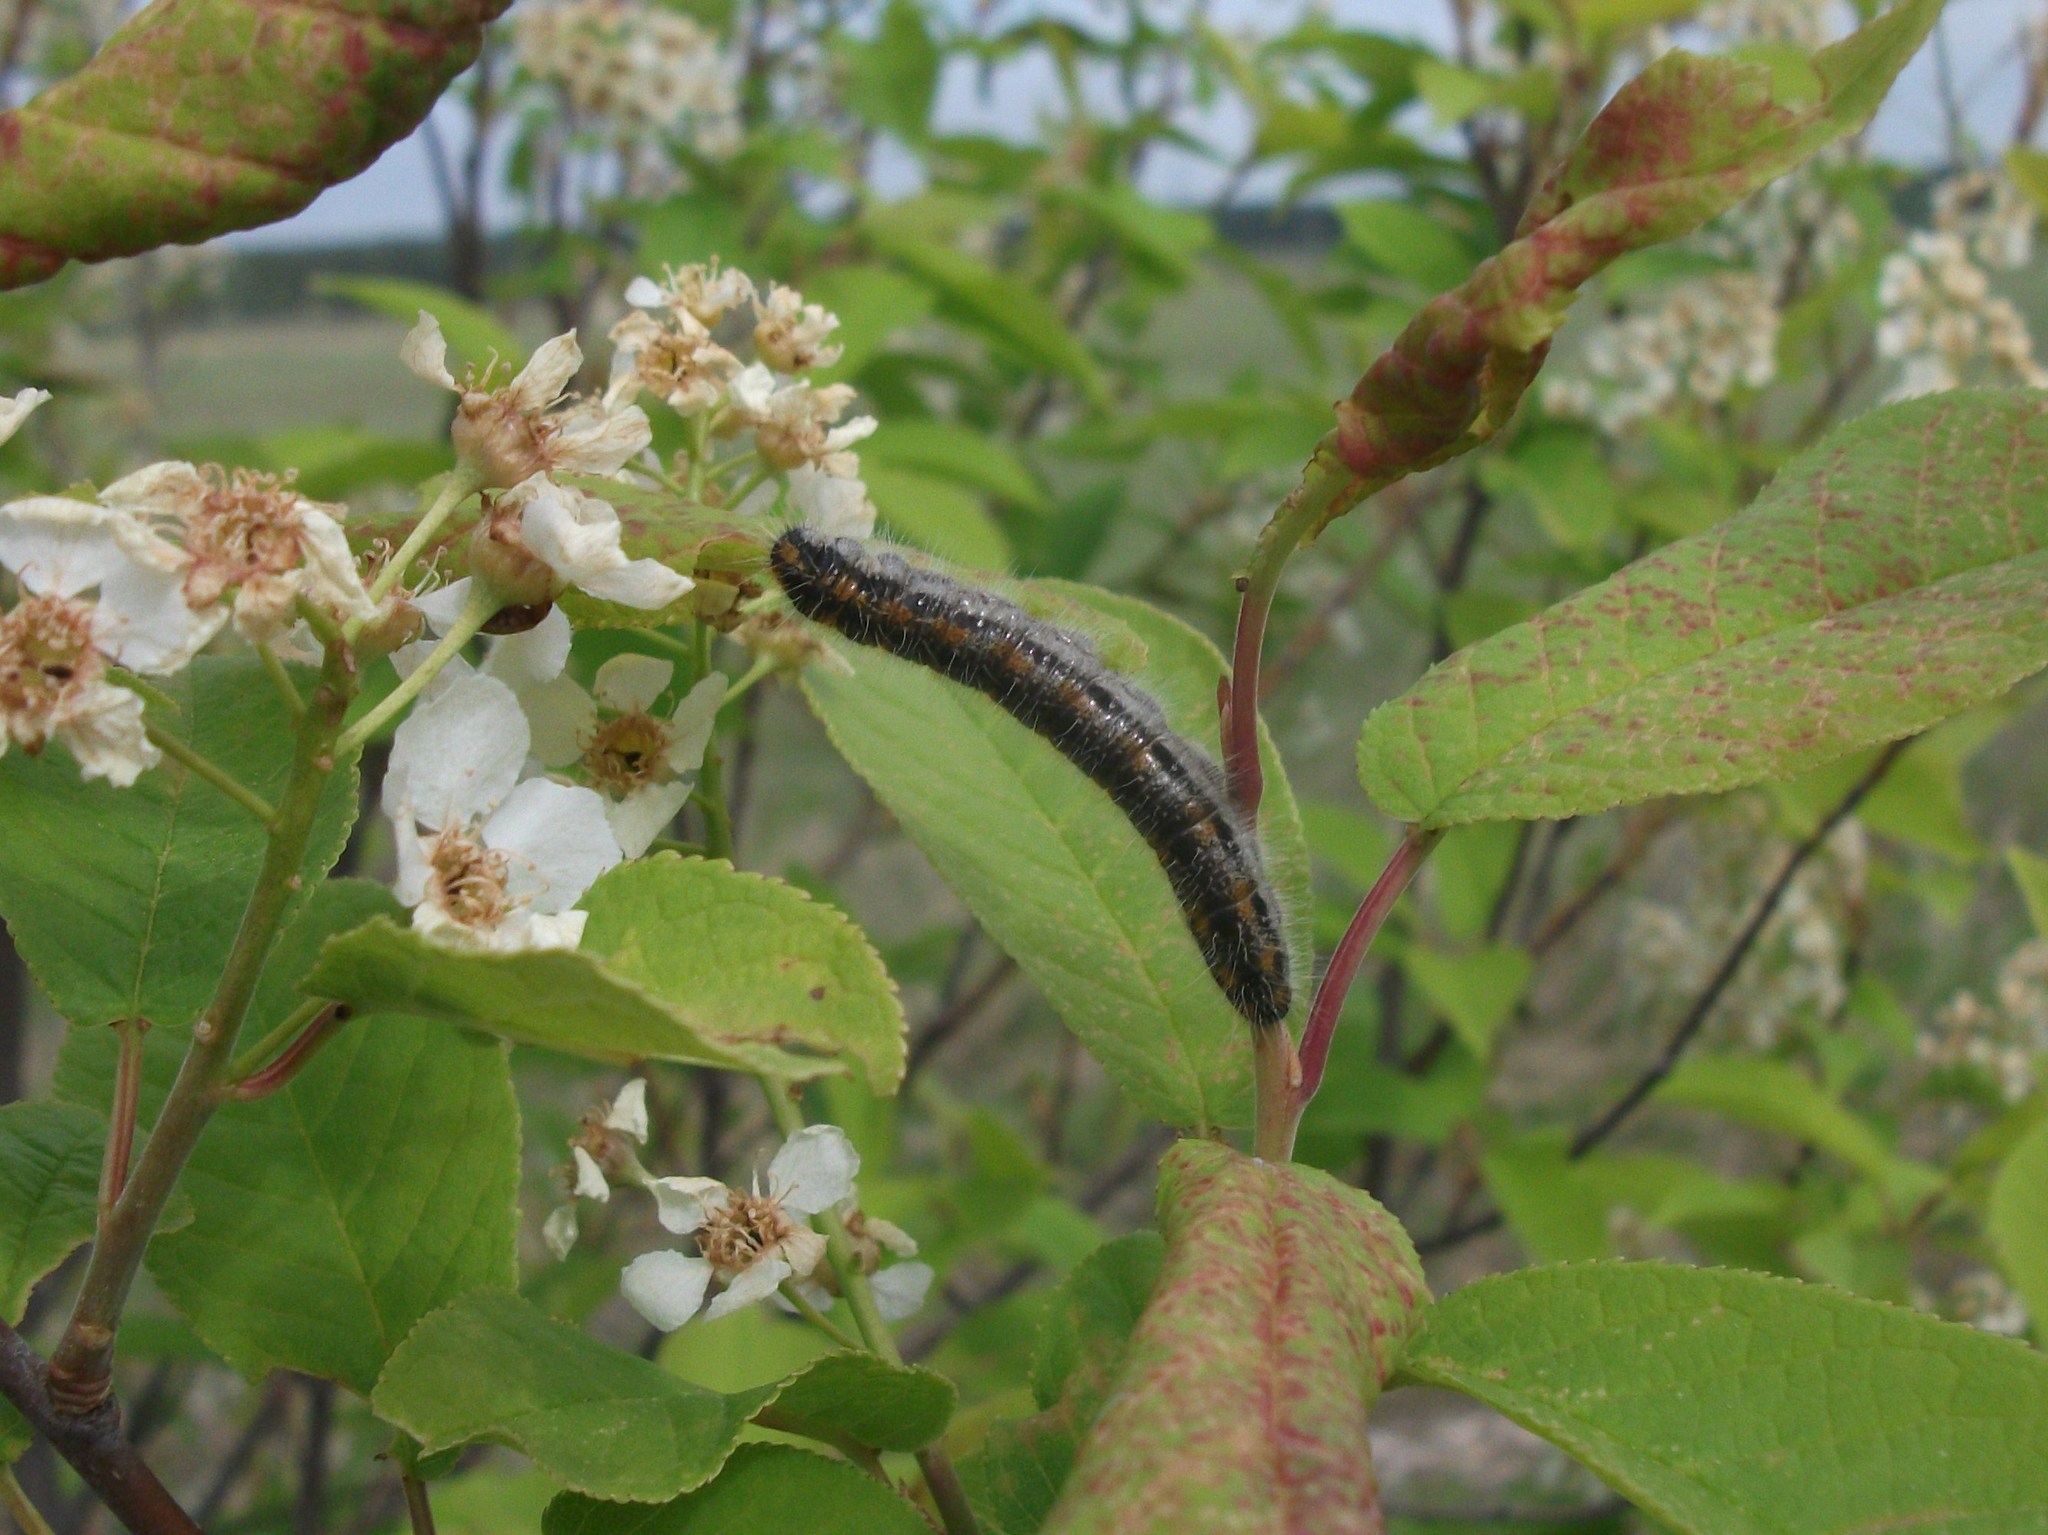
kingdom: Animalia
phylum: Arthropoda
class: Insecta
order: Lepidoptera
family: Pieridae
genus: Aporia
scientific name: Aporia crataegi
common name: Black-veined white
